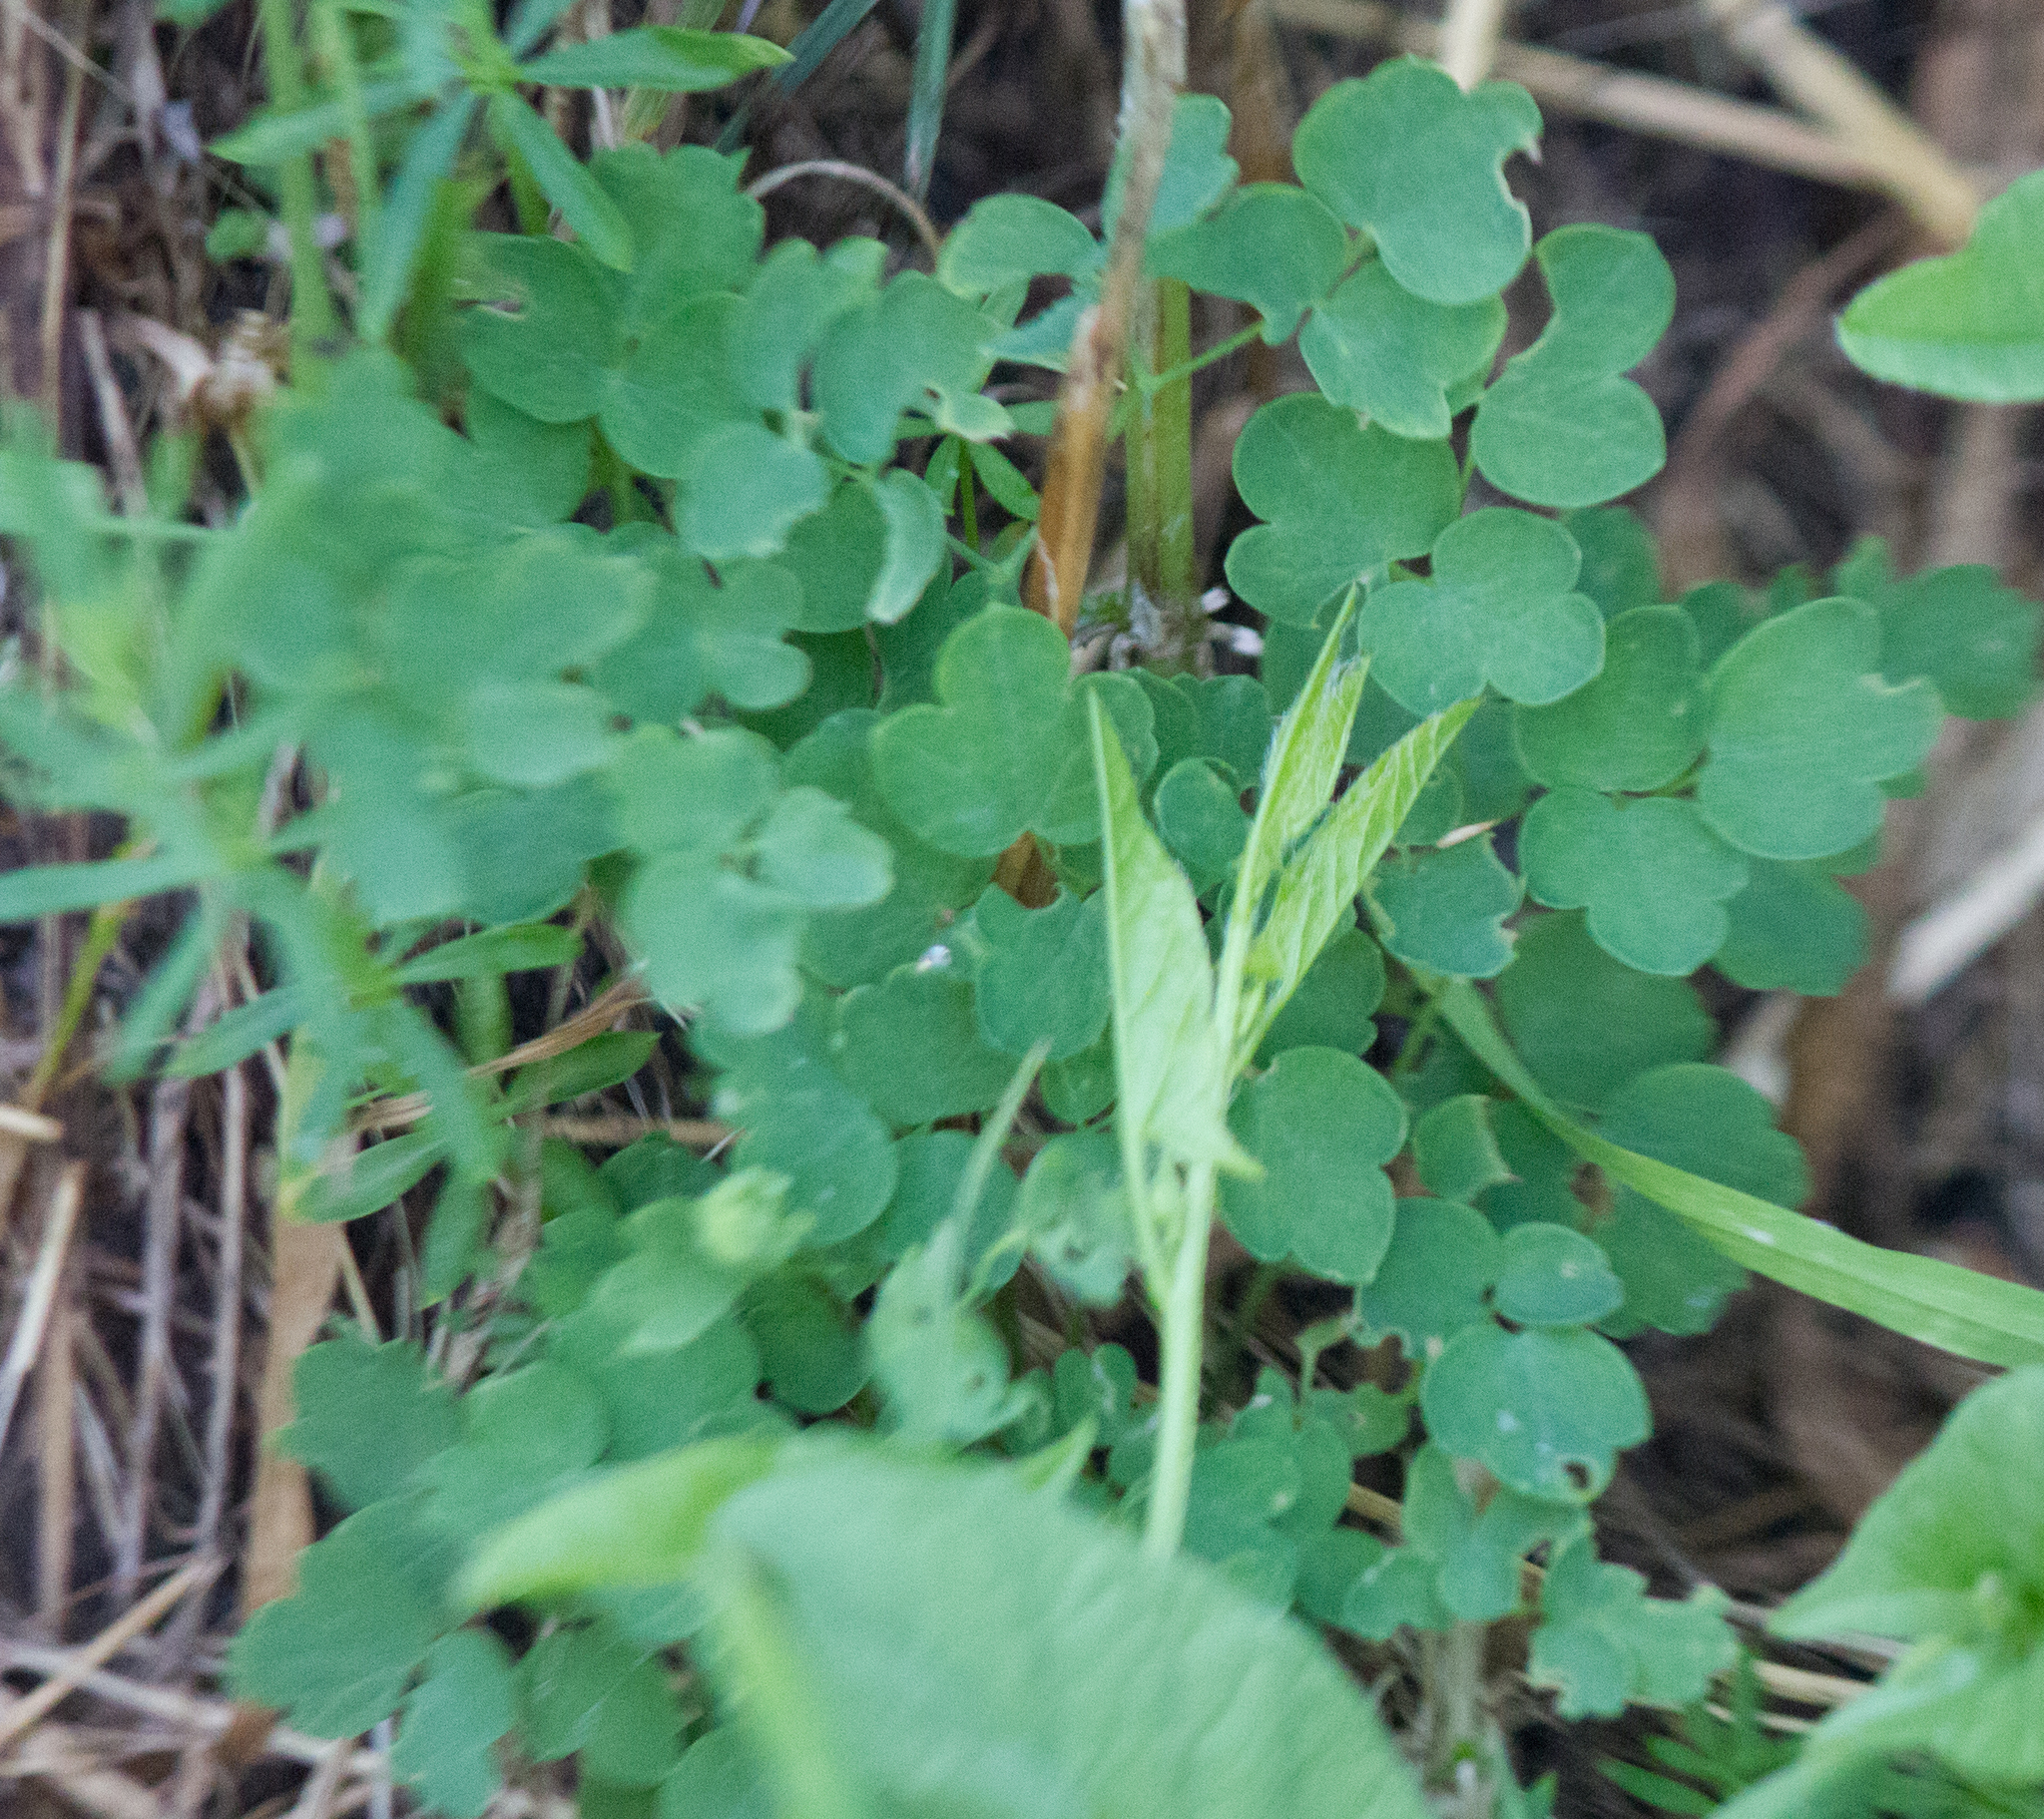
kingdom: Plantae
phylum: Tracheophyta
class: Magnoliopsida
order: Ranunculales
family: Ranunculaceae
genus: Thalictrum
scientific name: Thalictrum minus
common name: Lesser meadow-rue
